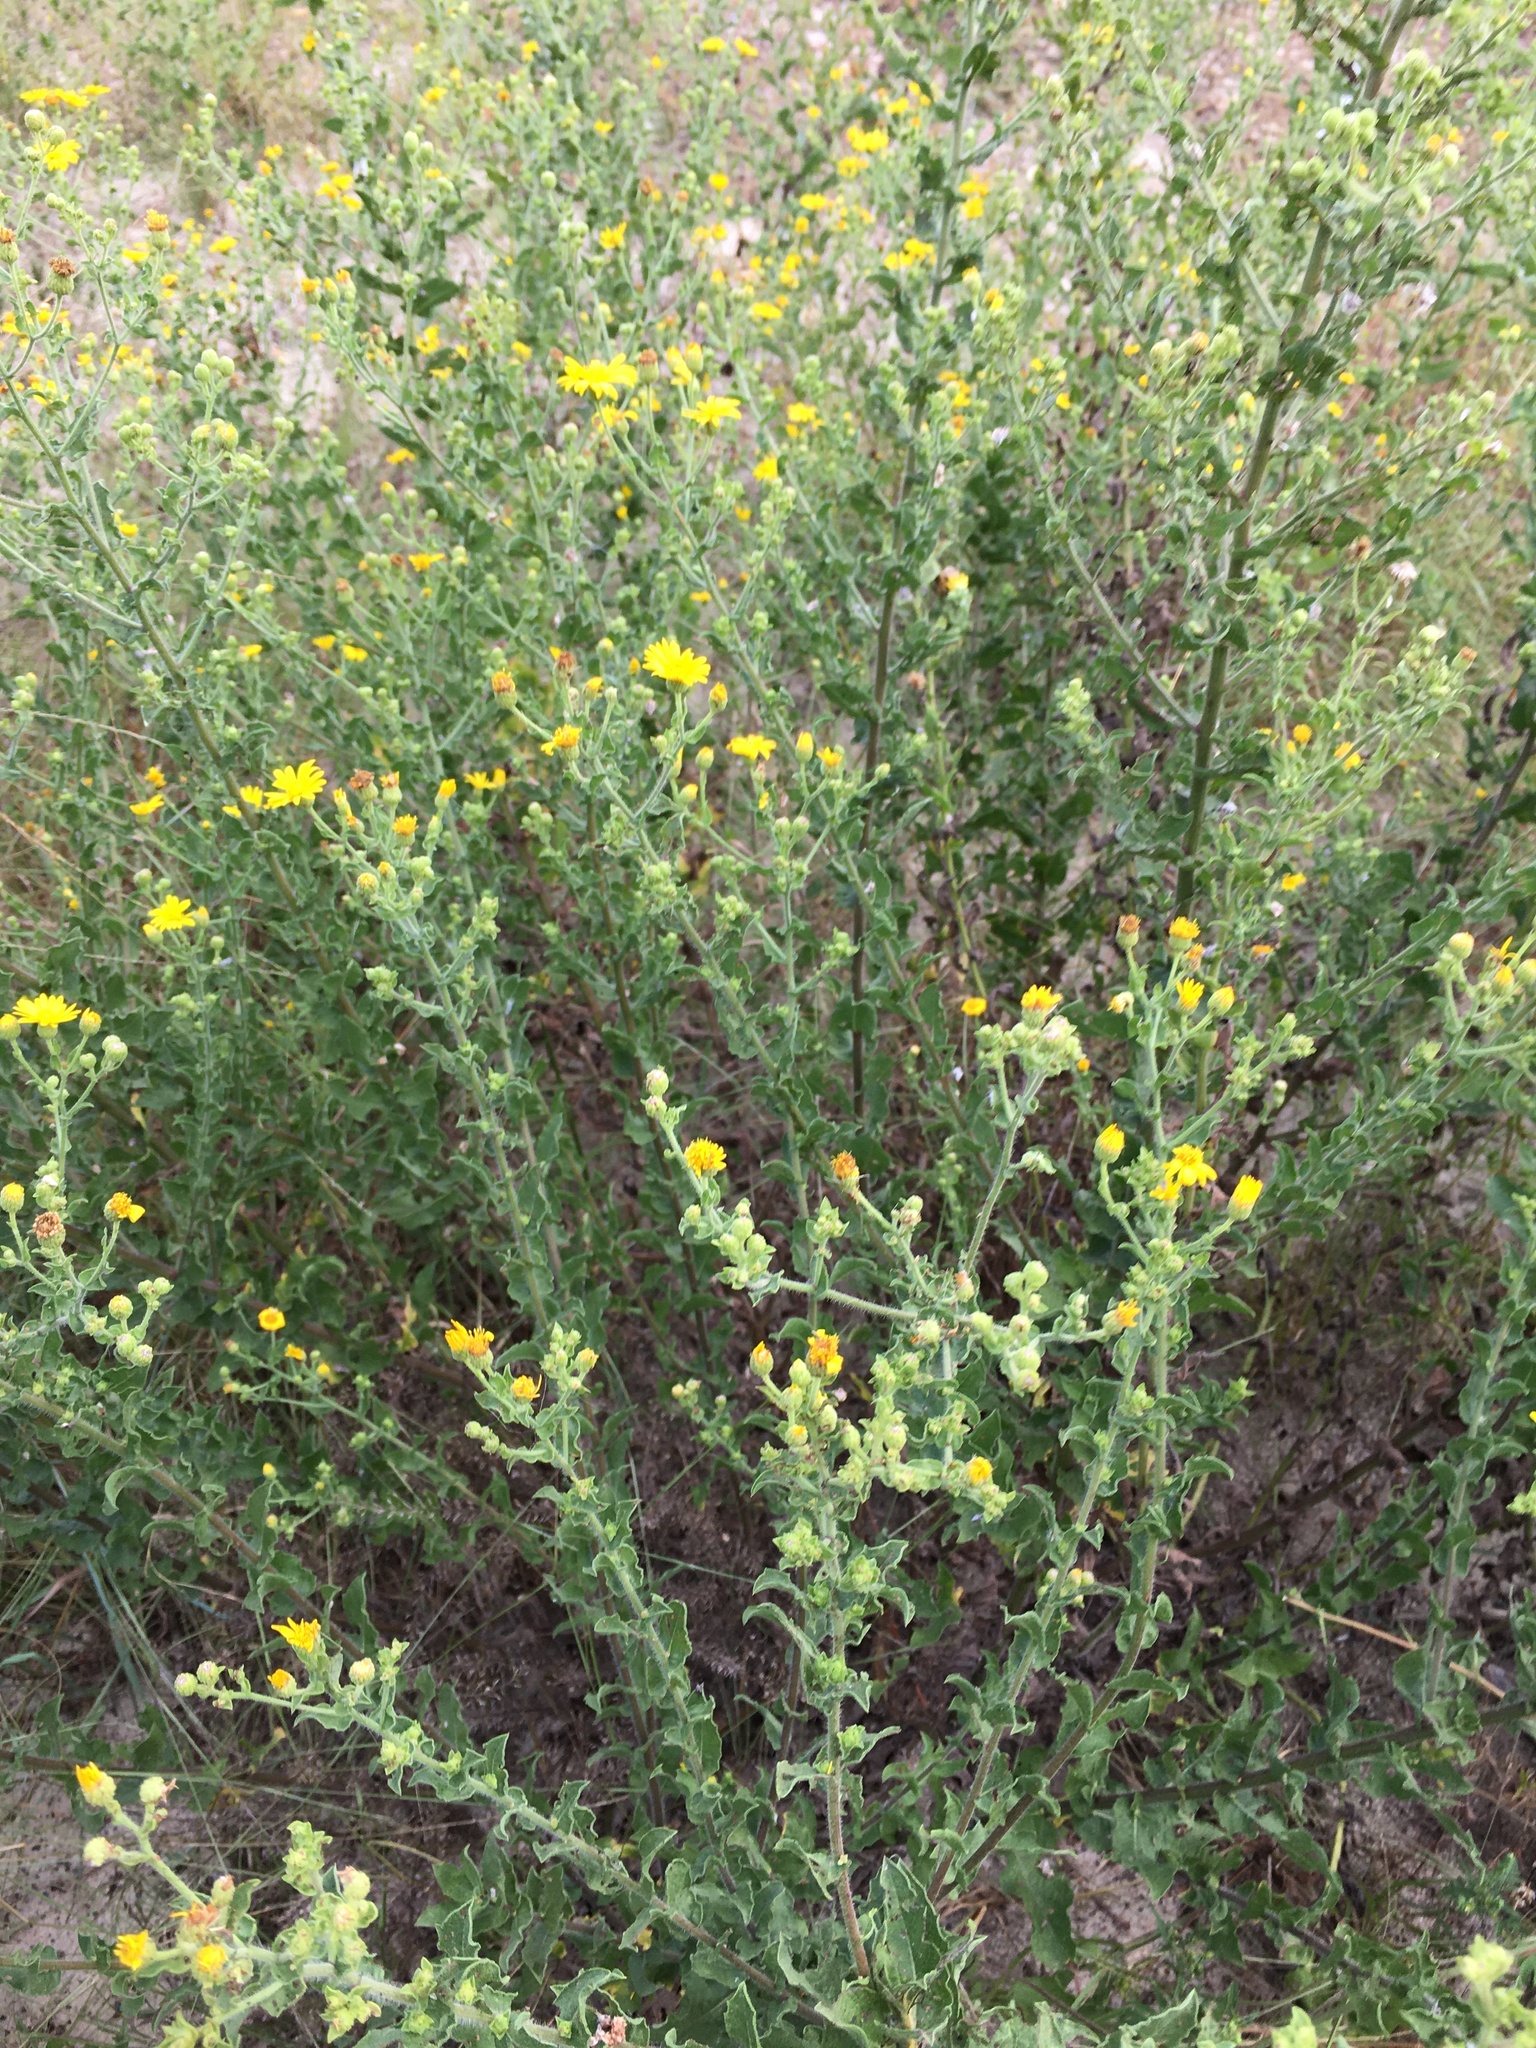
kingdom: Plantae
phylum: Tracheophyta
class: Magnoliopsida
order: Asterales
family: Asteraceae
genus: Heterotheca
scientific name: Heterotheca subaxillaris
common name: Camphorweed
